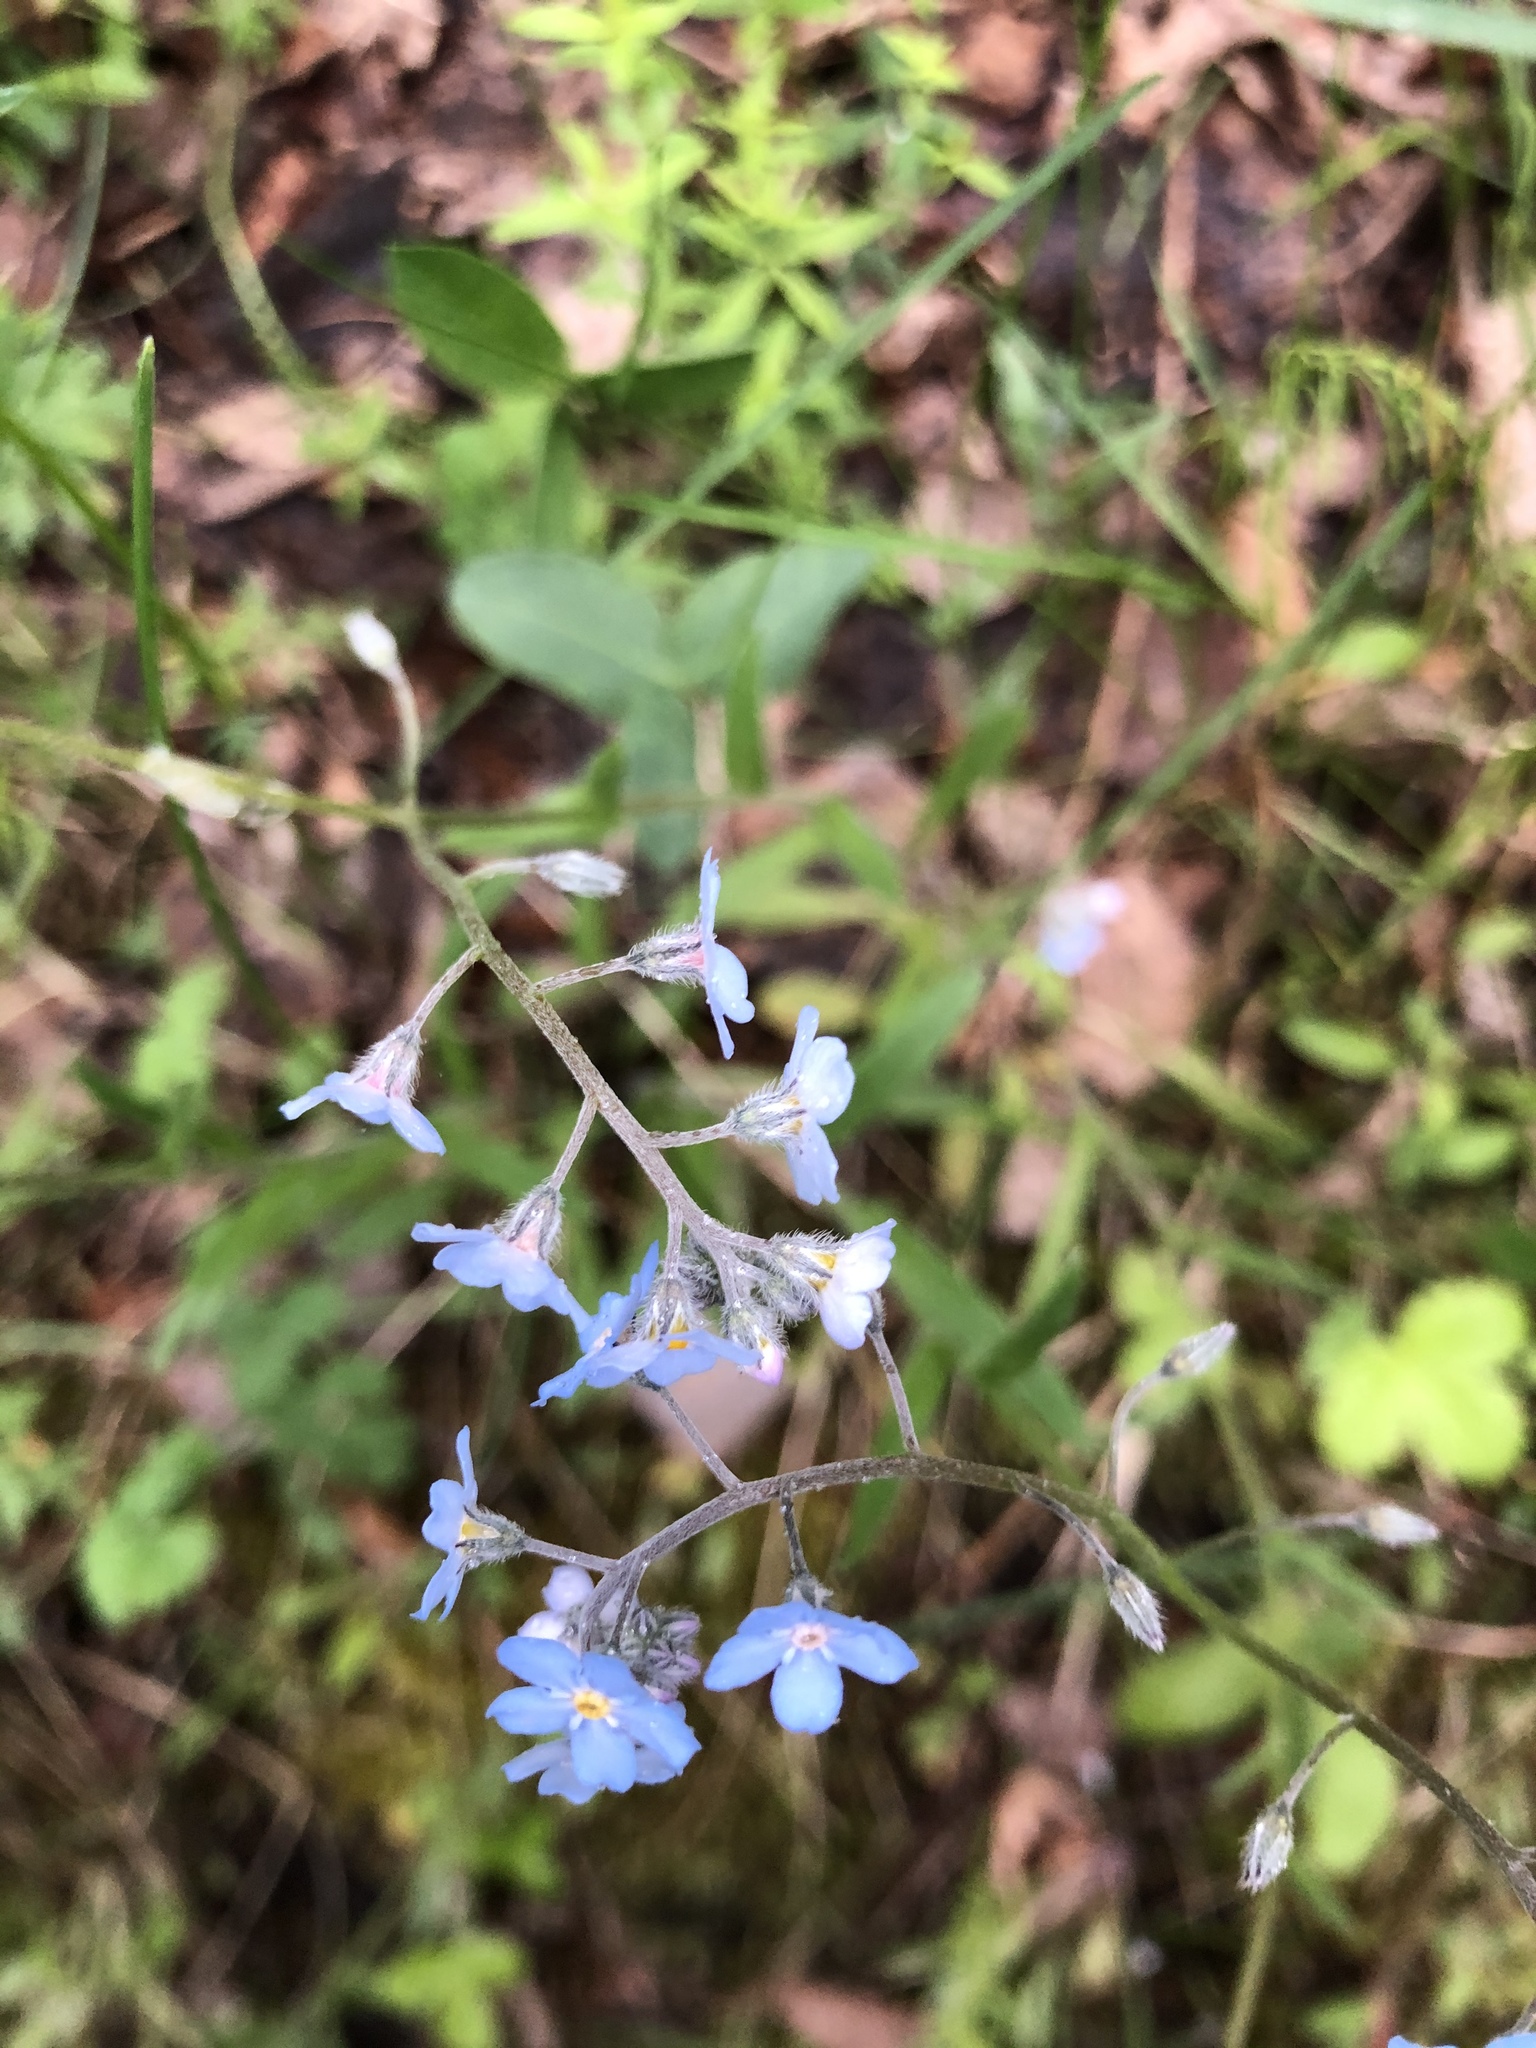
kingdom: Plantae
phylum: Tracheophyta
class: Magnoliopsida
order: Boraginales
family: Boraginaceae
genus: Myosotis
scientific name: Myosotis imitata
